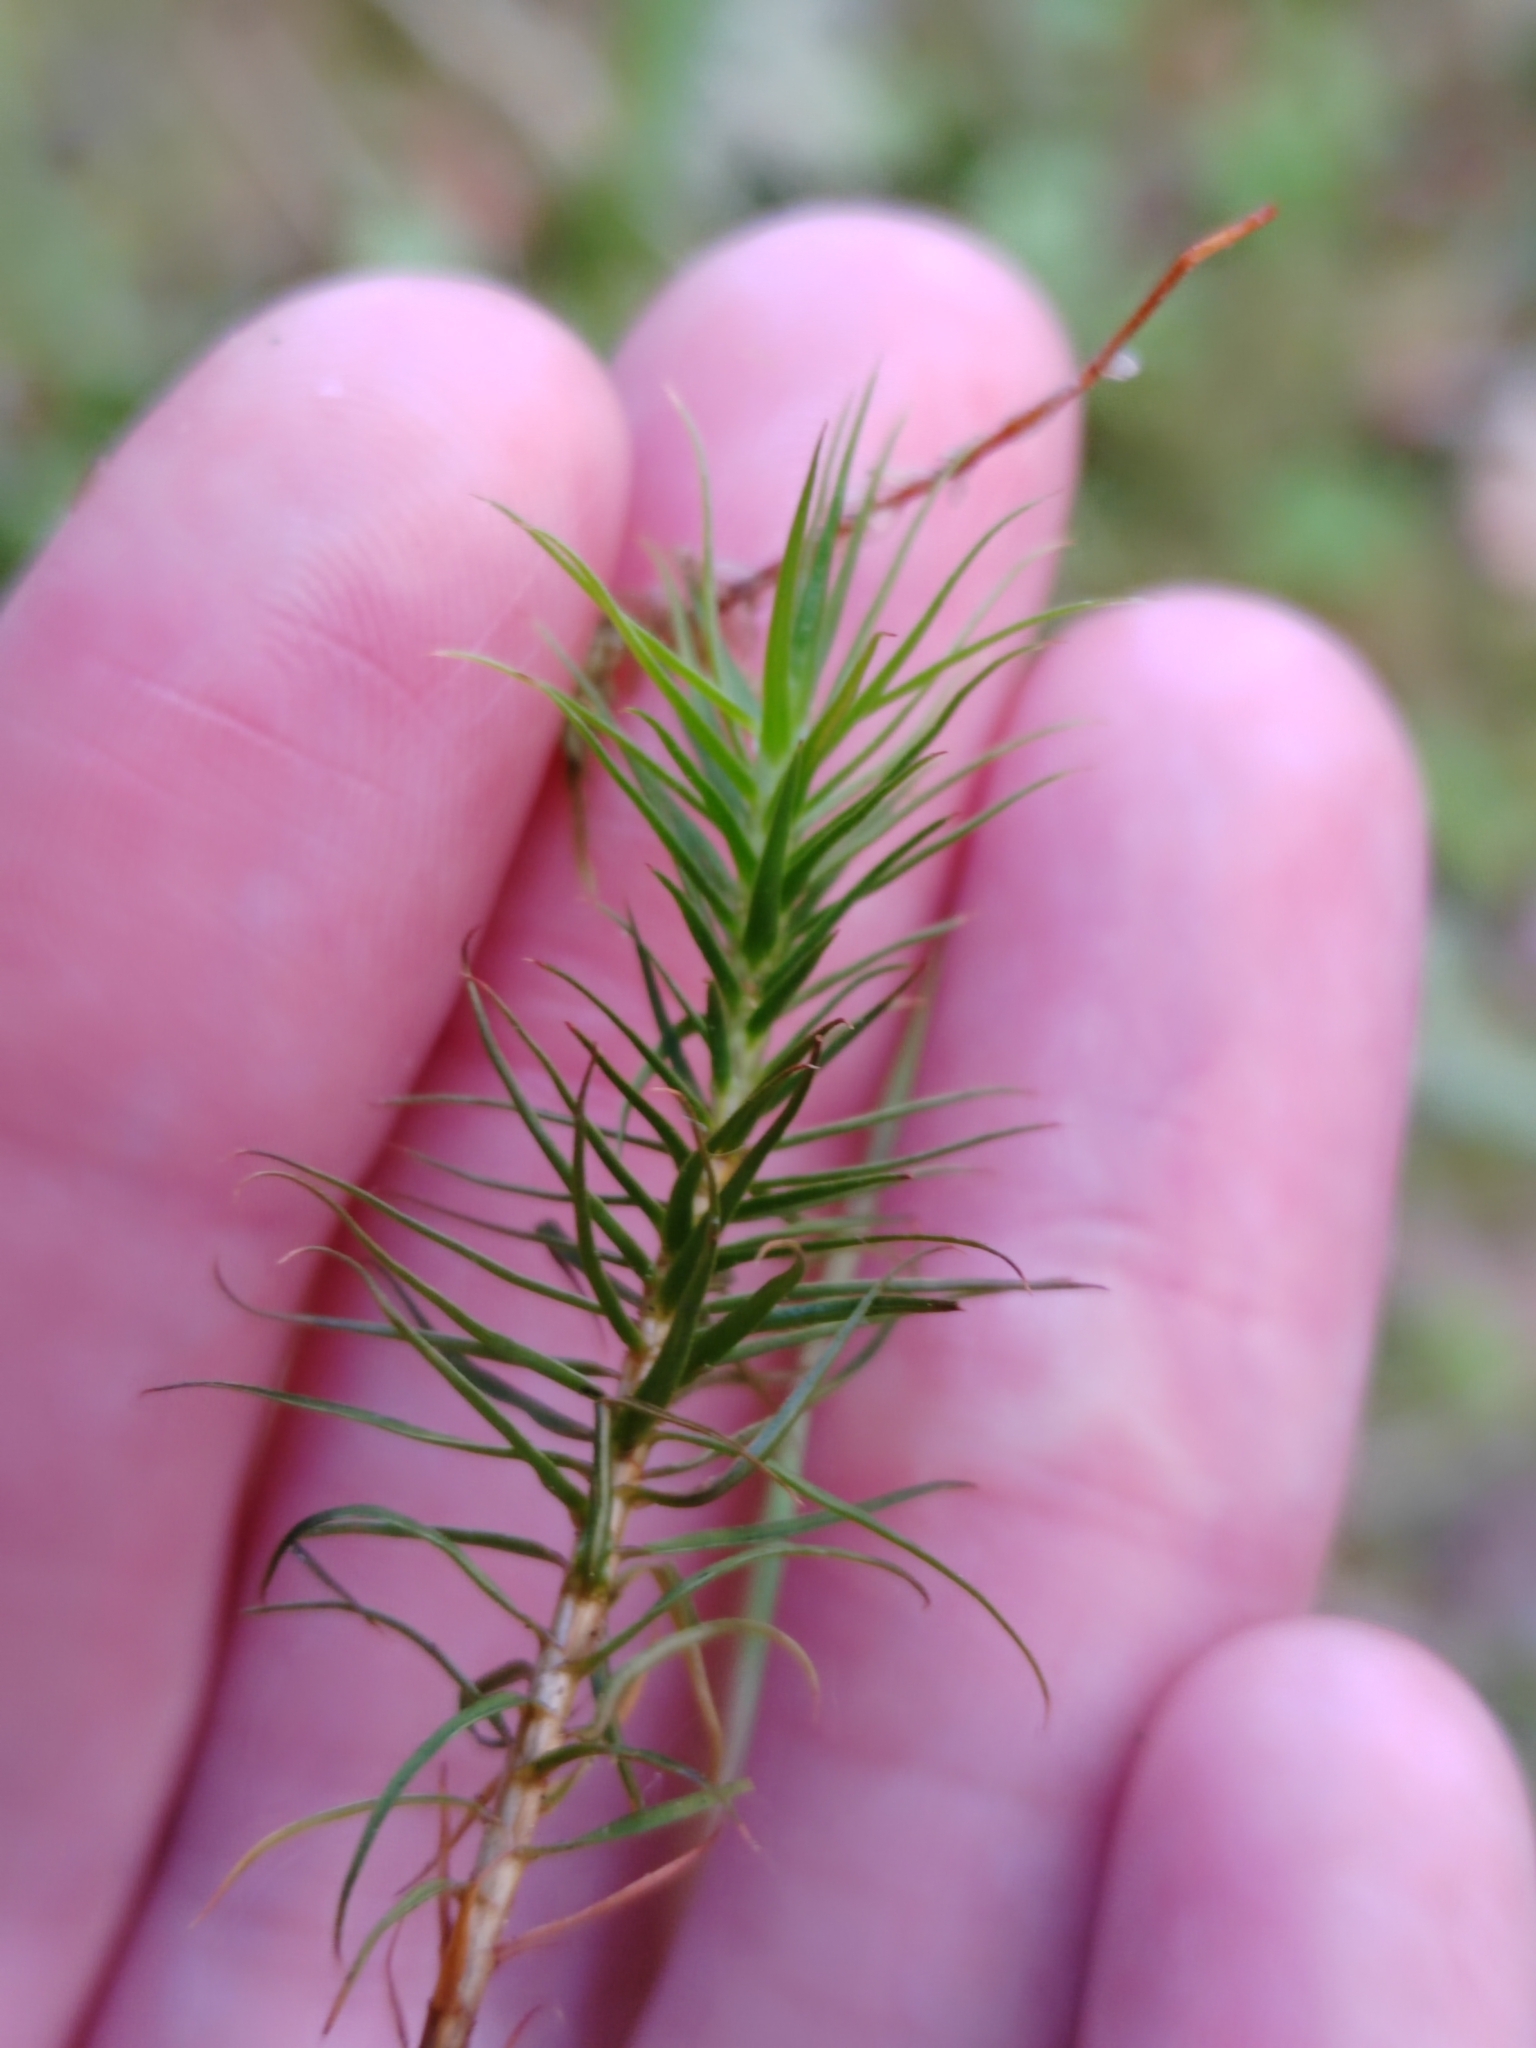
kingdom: Plantae
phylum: Bryophyta
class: Polytrichopsida
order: Polytrichales
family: Polytrichaceae
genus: Polytrichum
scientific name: Polytrichum commune
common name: Common haircap
